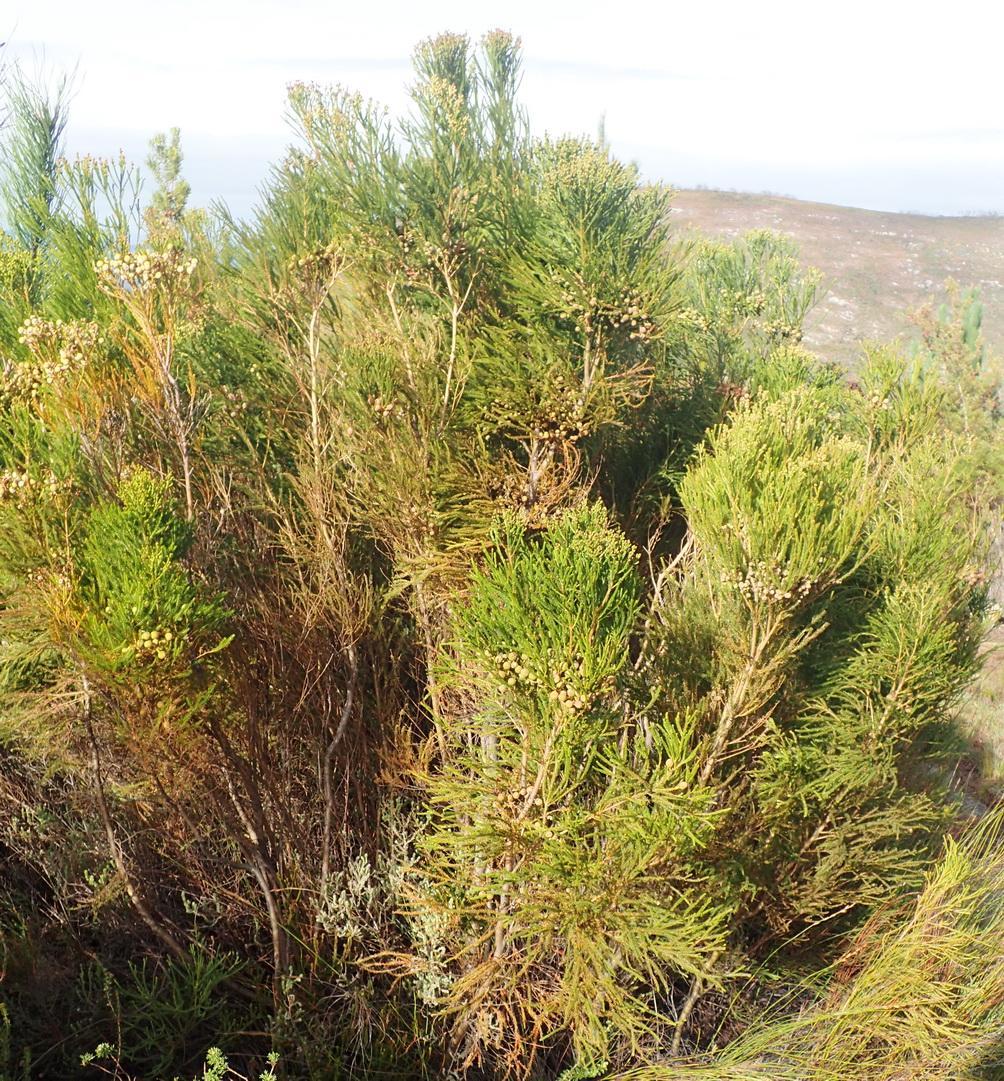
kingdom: Plantae
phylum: Tracheophyta
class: Magnoliopsida
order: Bruniales
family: Bruniaceae
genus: Berzelia
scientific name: Berzelia intermedia
